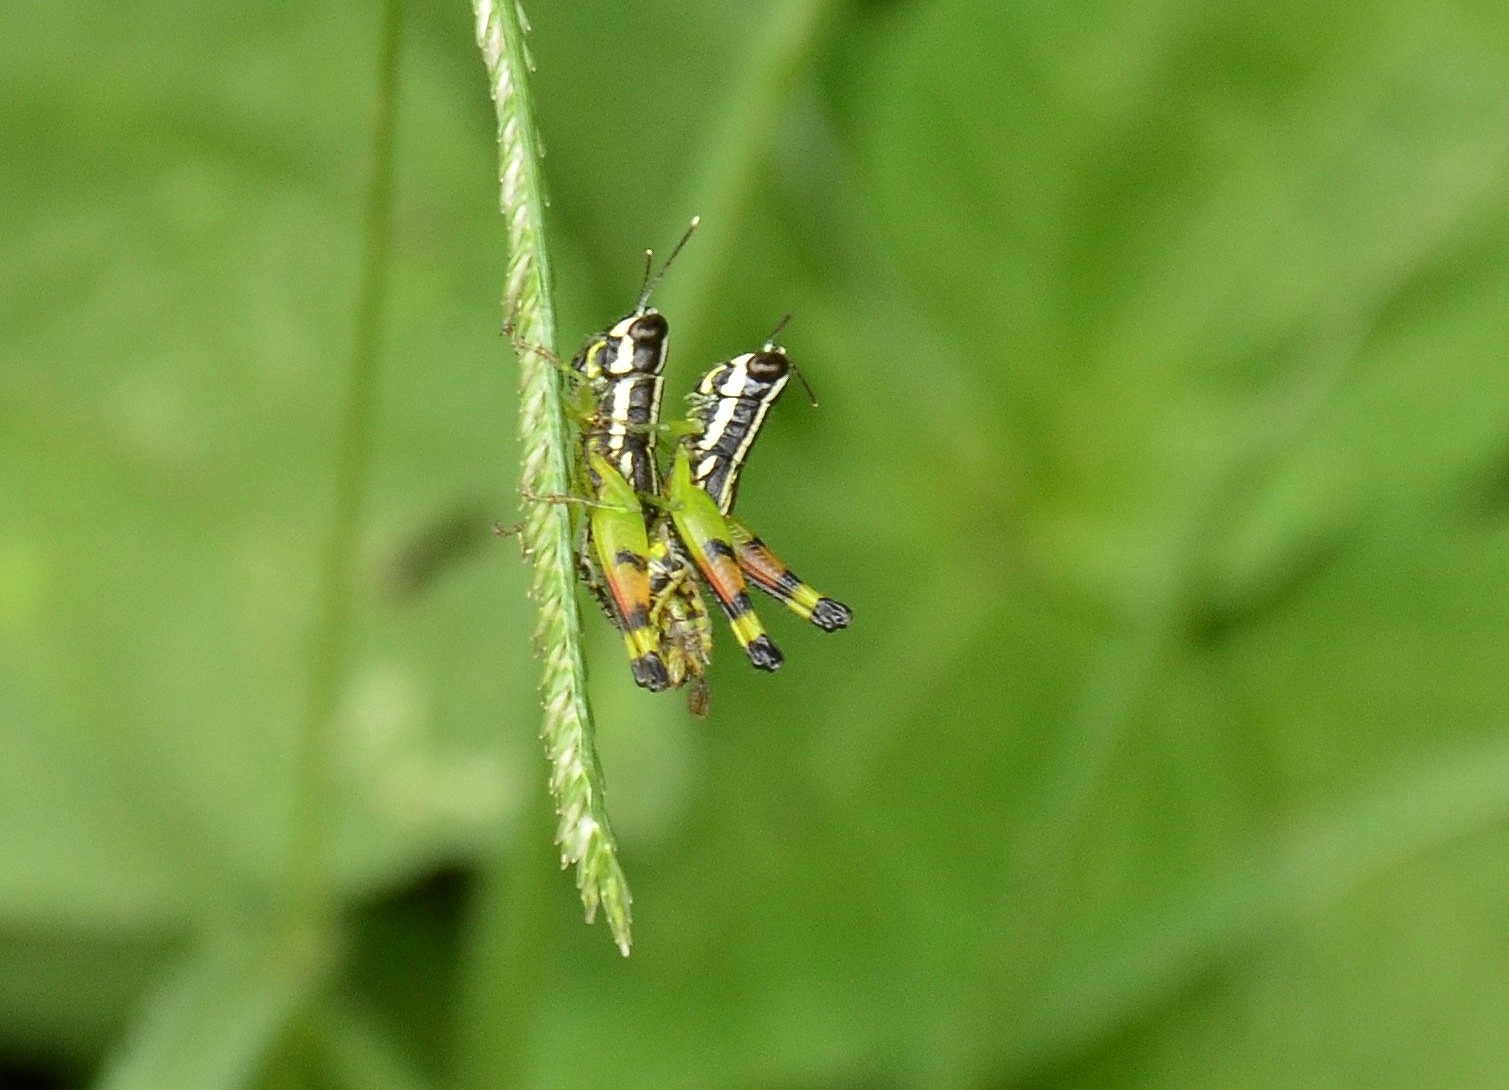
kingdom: Animalia
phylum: Arthropoda
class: Insecta
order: Orthoptera
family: Acrididae
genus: Chitaura
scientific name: Chitaura indica
